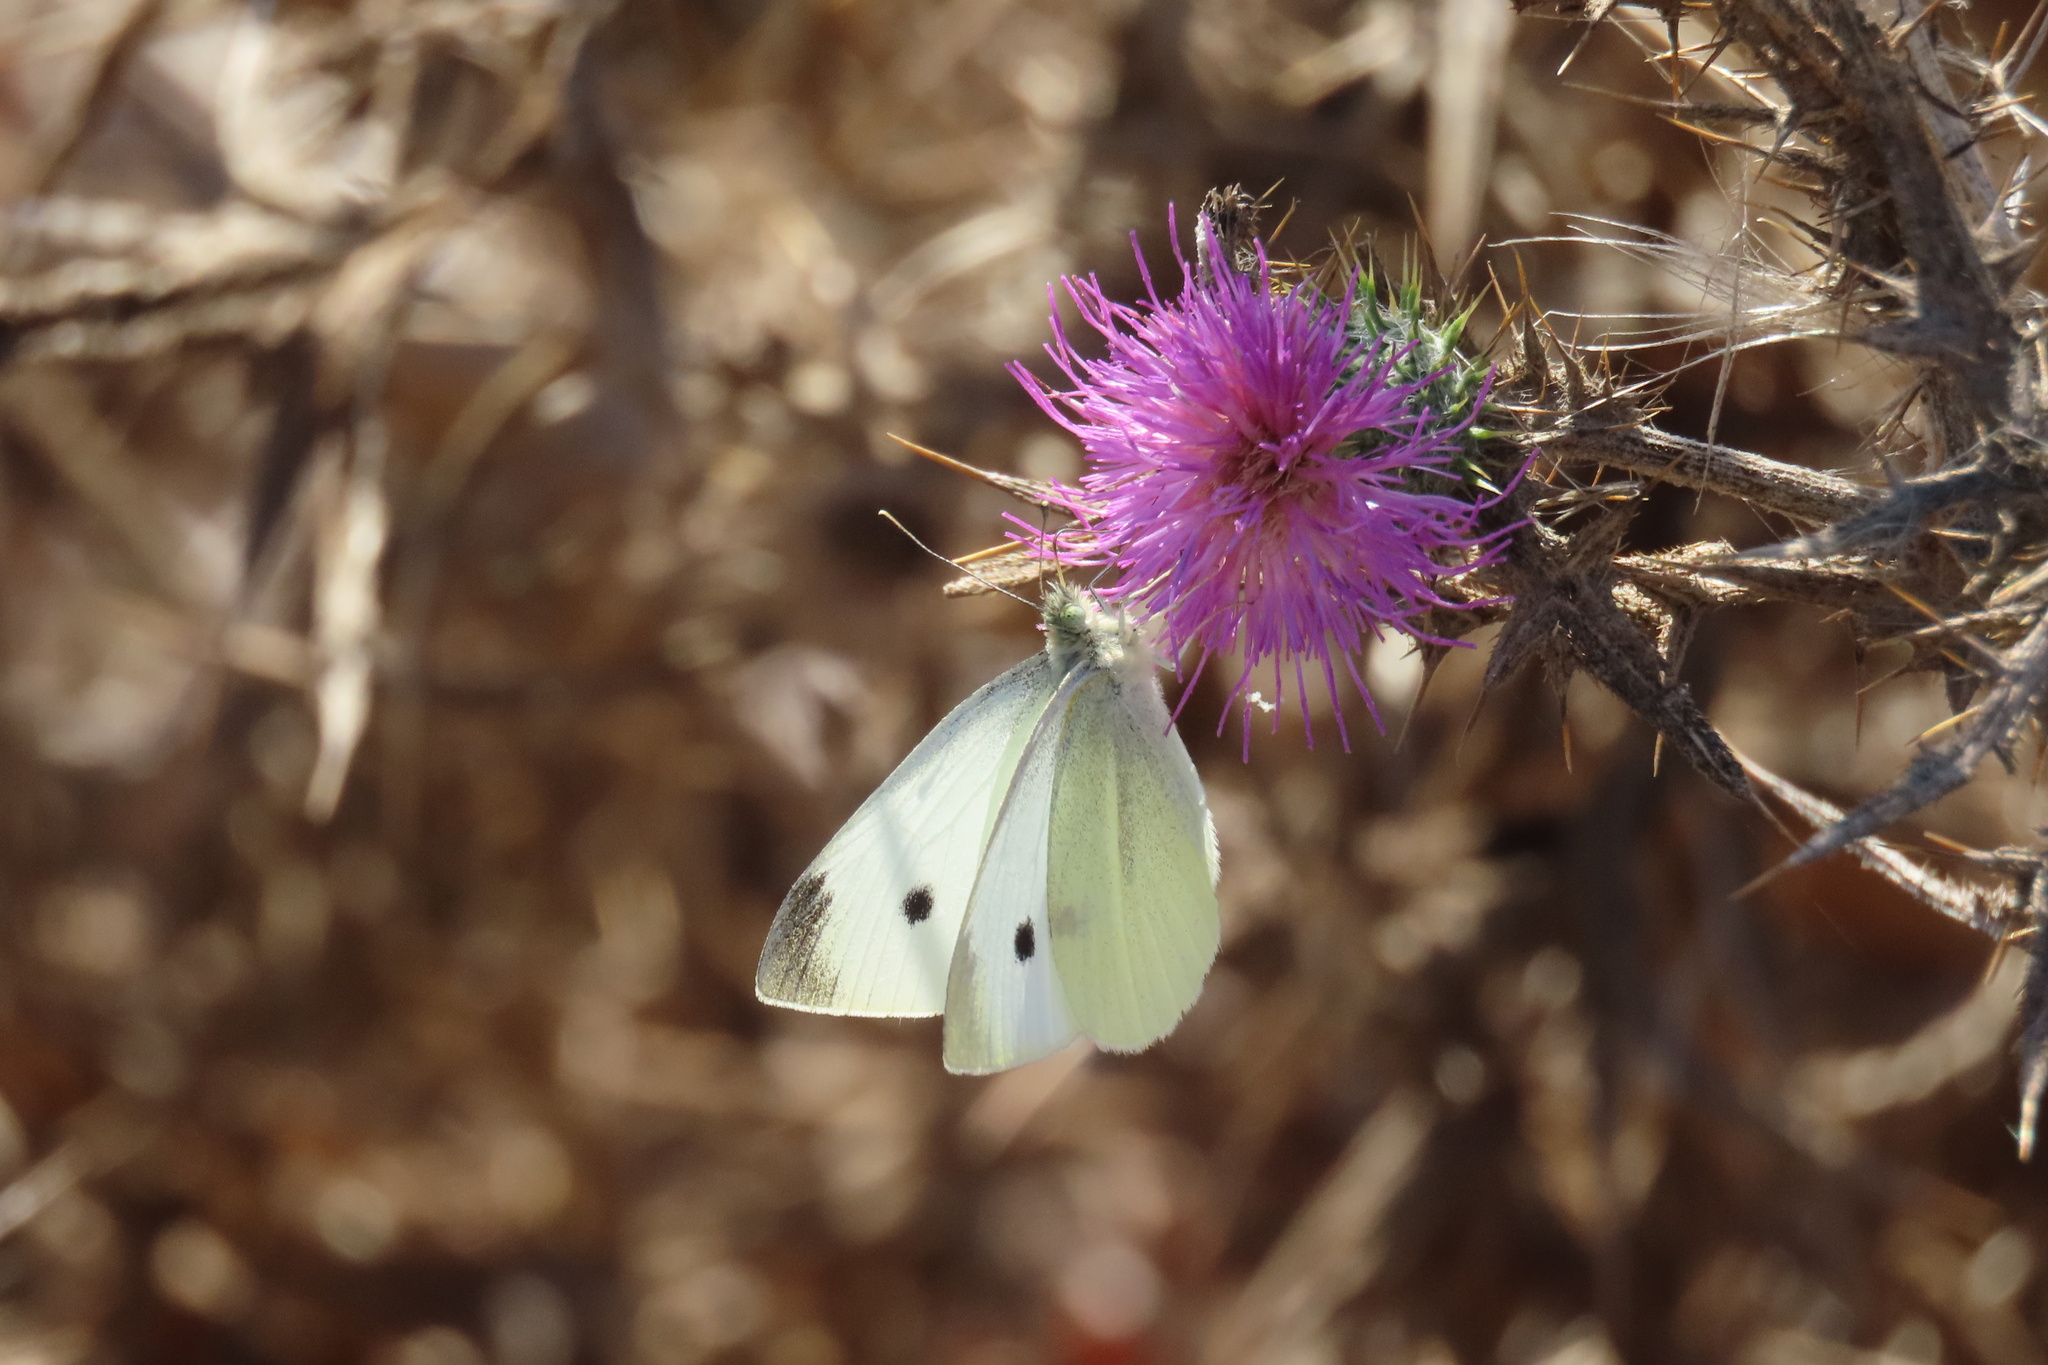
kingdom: Animalia
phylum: Arthropoda
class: Insecta
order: Lepidoptera
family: Pieridae
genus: Pieris
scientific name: Pieris rapae
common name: Small white
